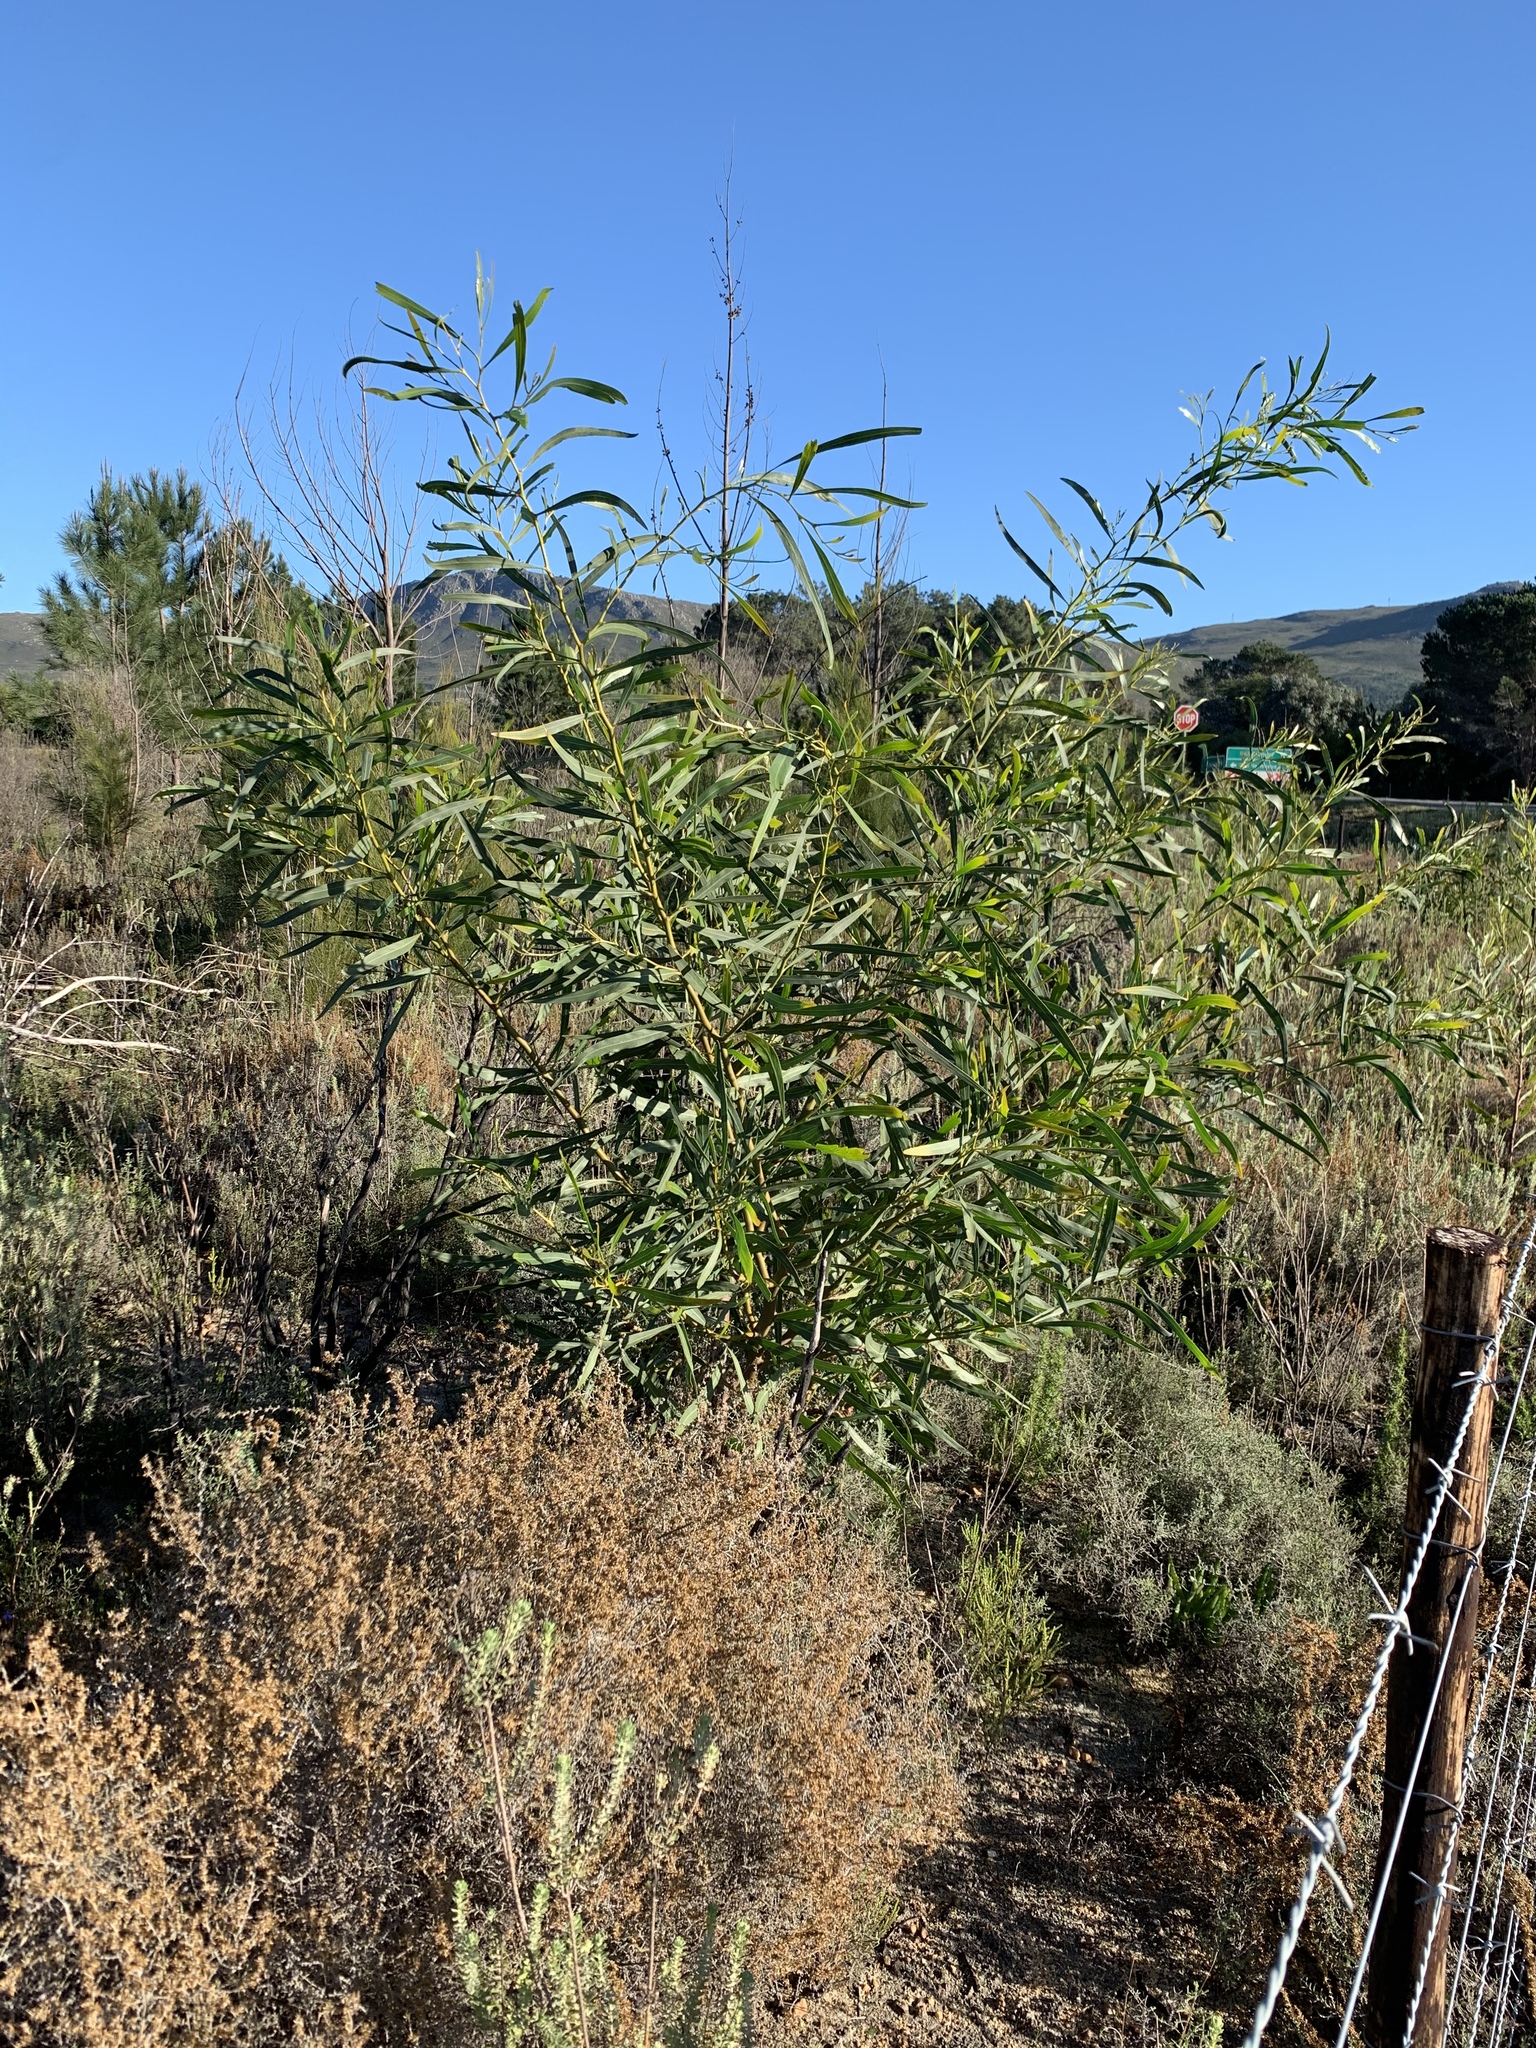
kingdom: Plantae
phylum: Tracheophyta
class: Magnoliopsida
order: Fabales
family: Fabaceae
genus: Acacia
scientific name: Acacia saligna
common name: Orange wattle
